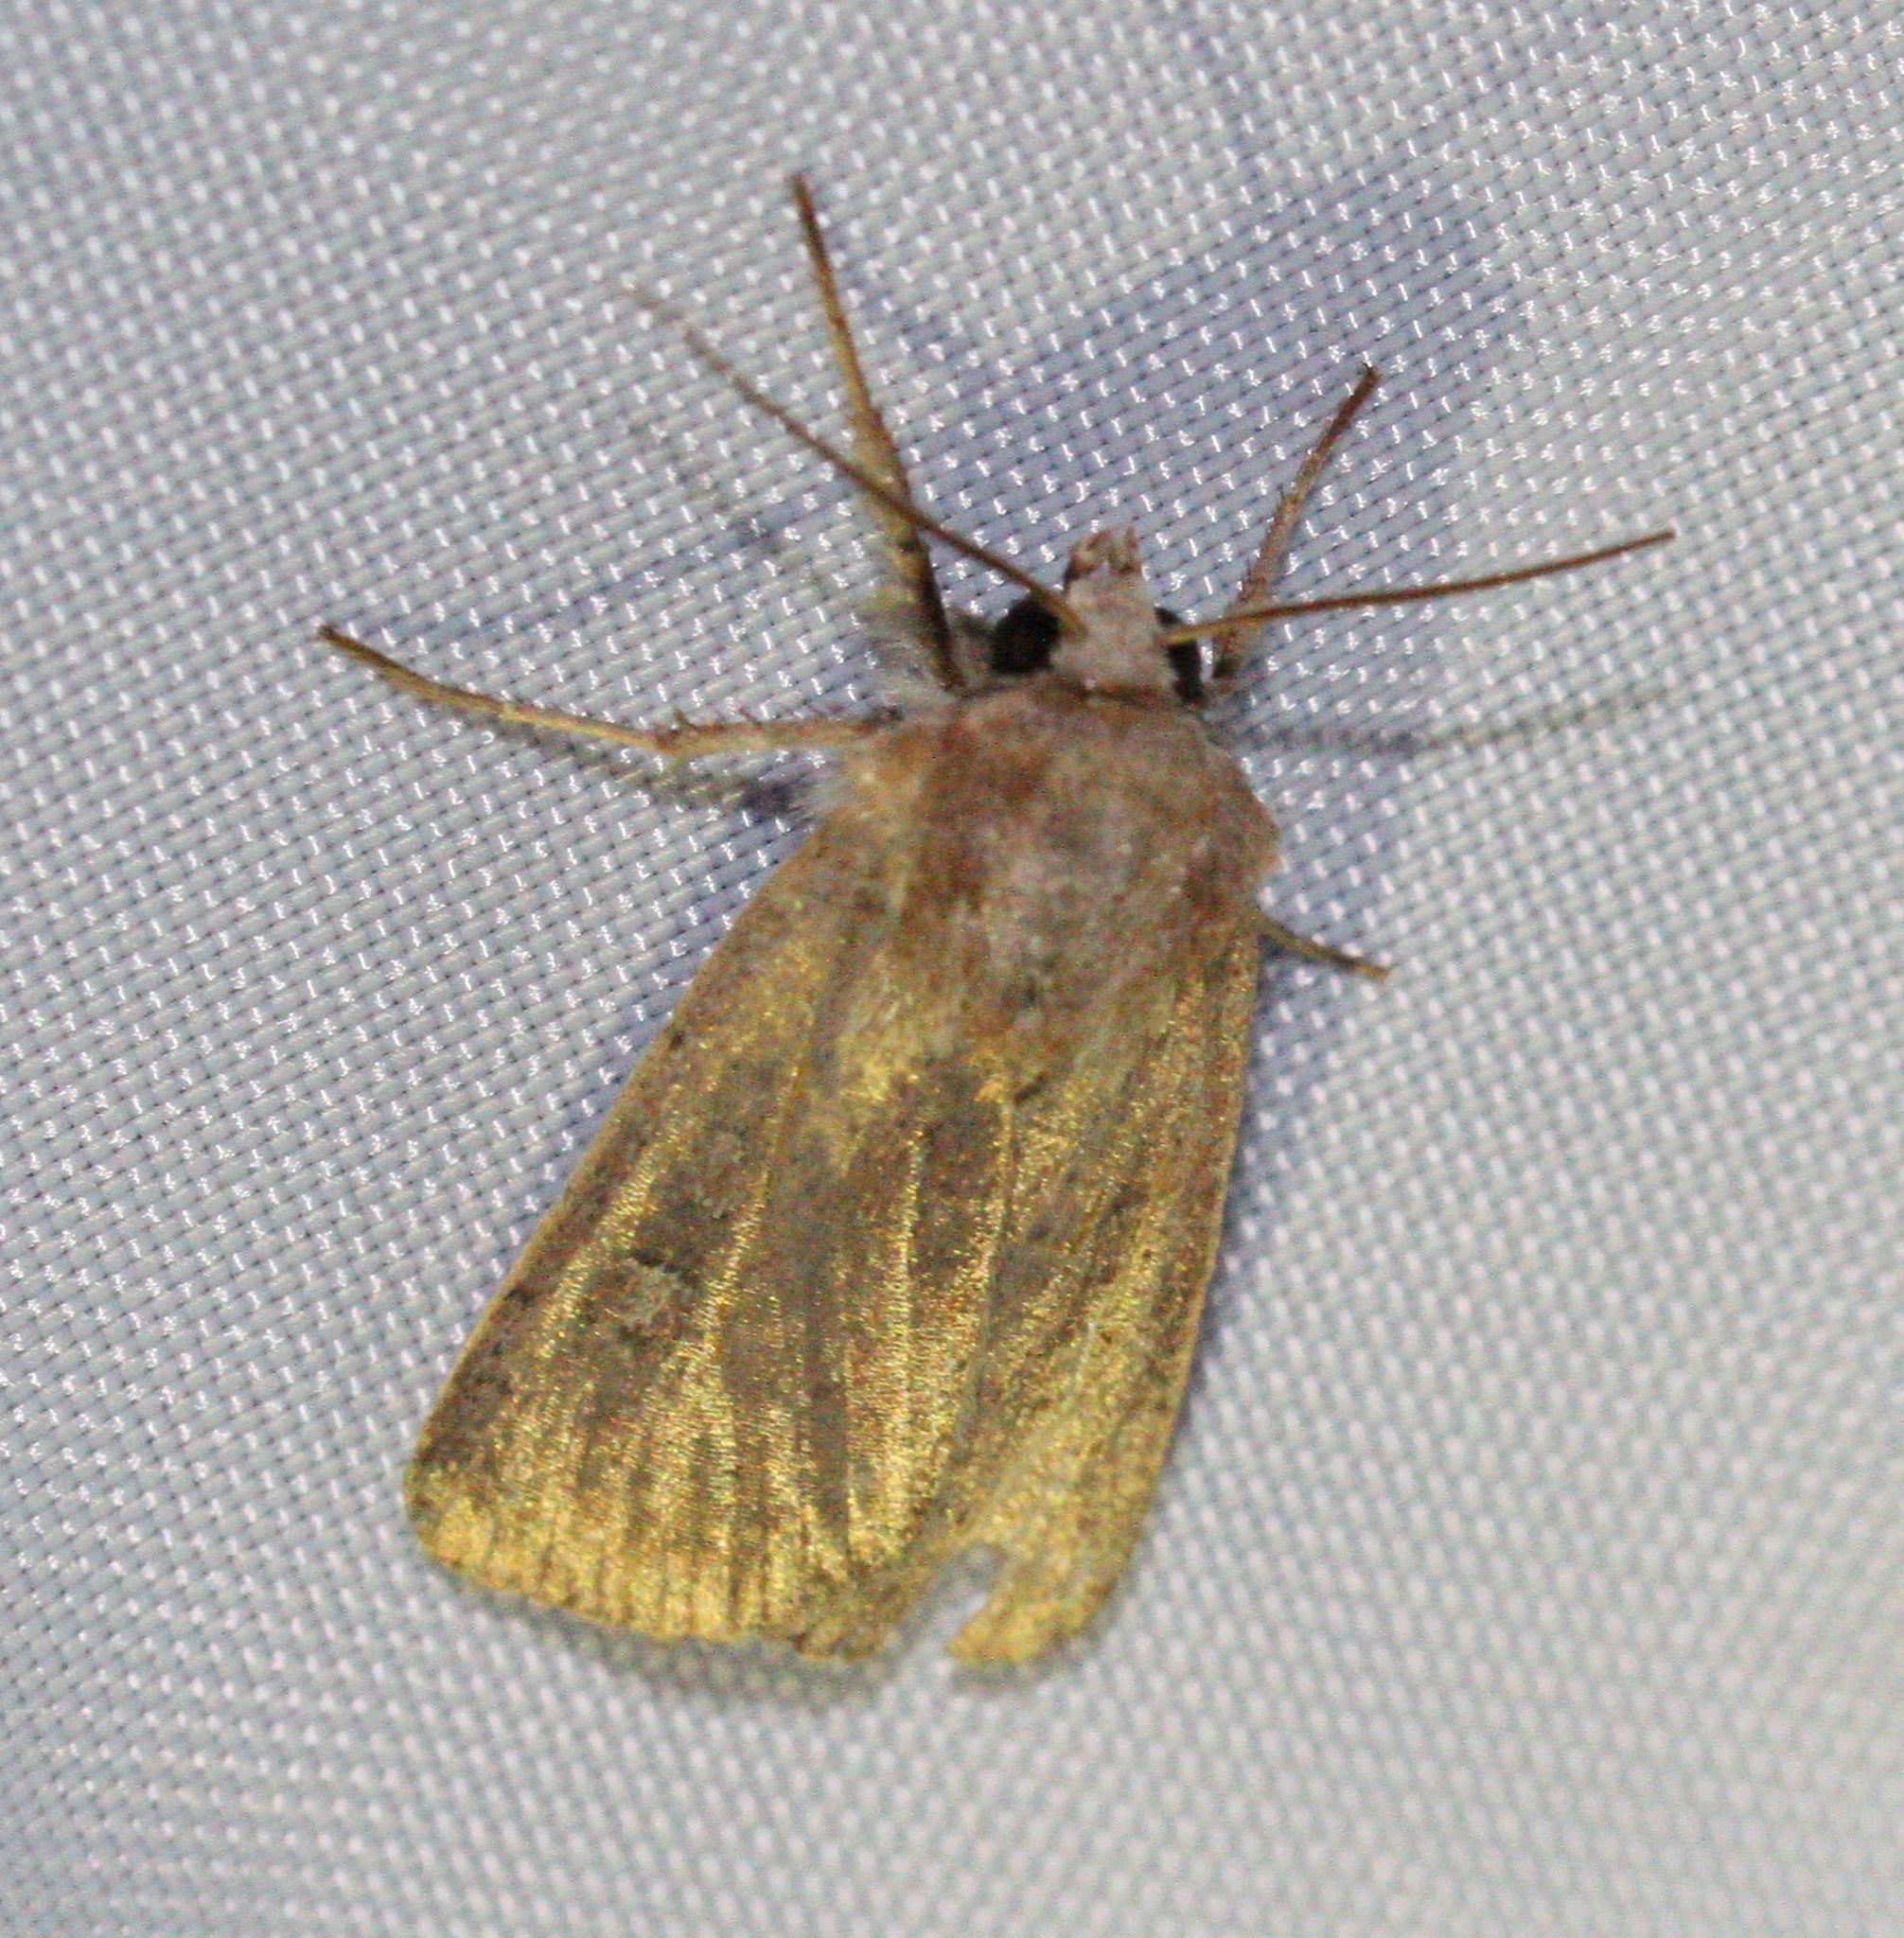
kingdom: Animalia
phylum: Arthropoda
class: Insecta
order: Lepidoptera
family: Noctuidae
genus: Xestia
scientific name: Xestia xanthographa
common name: Square-spot rustic
